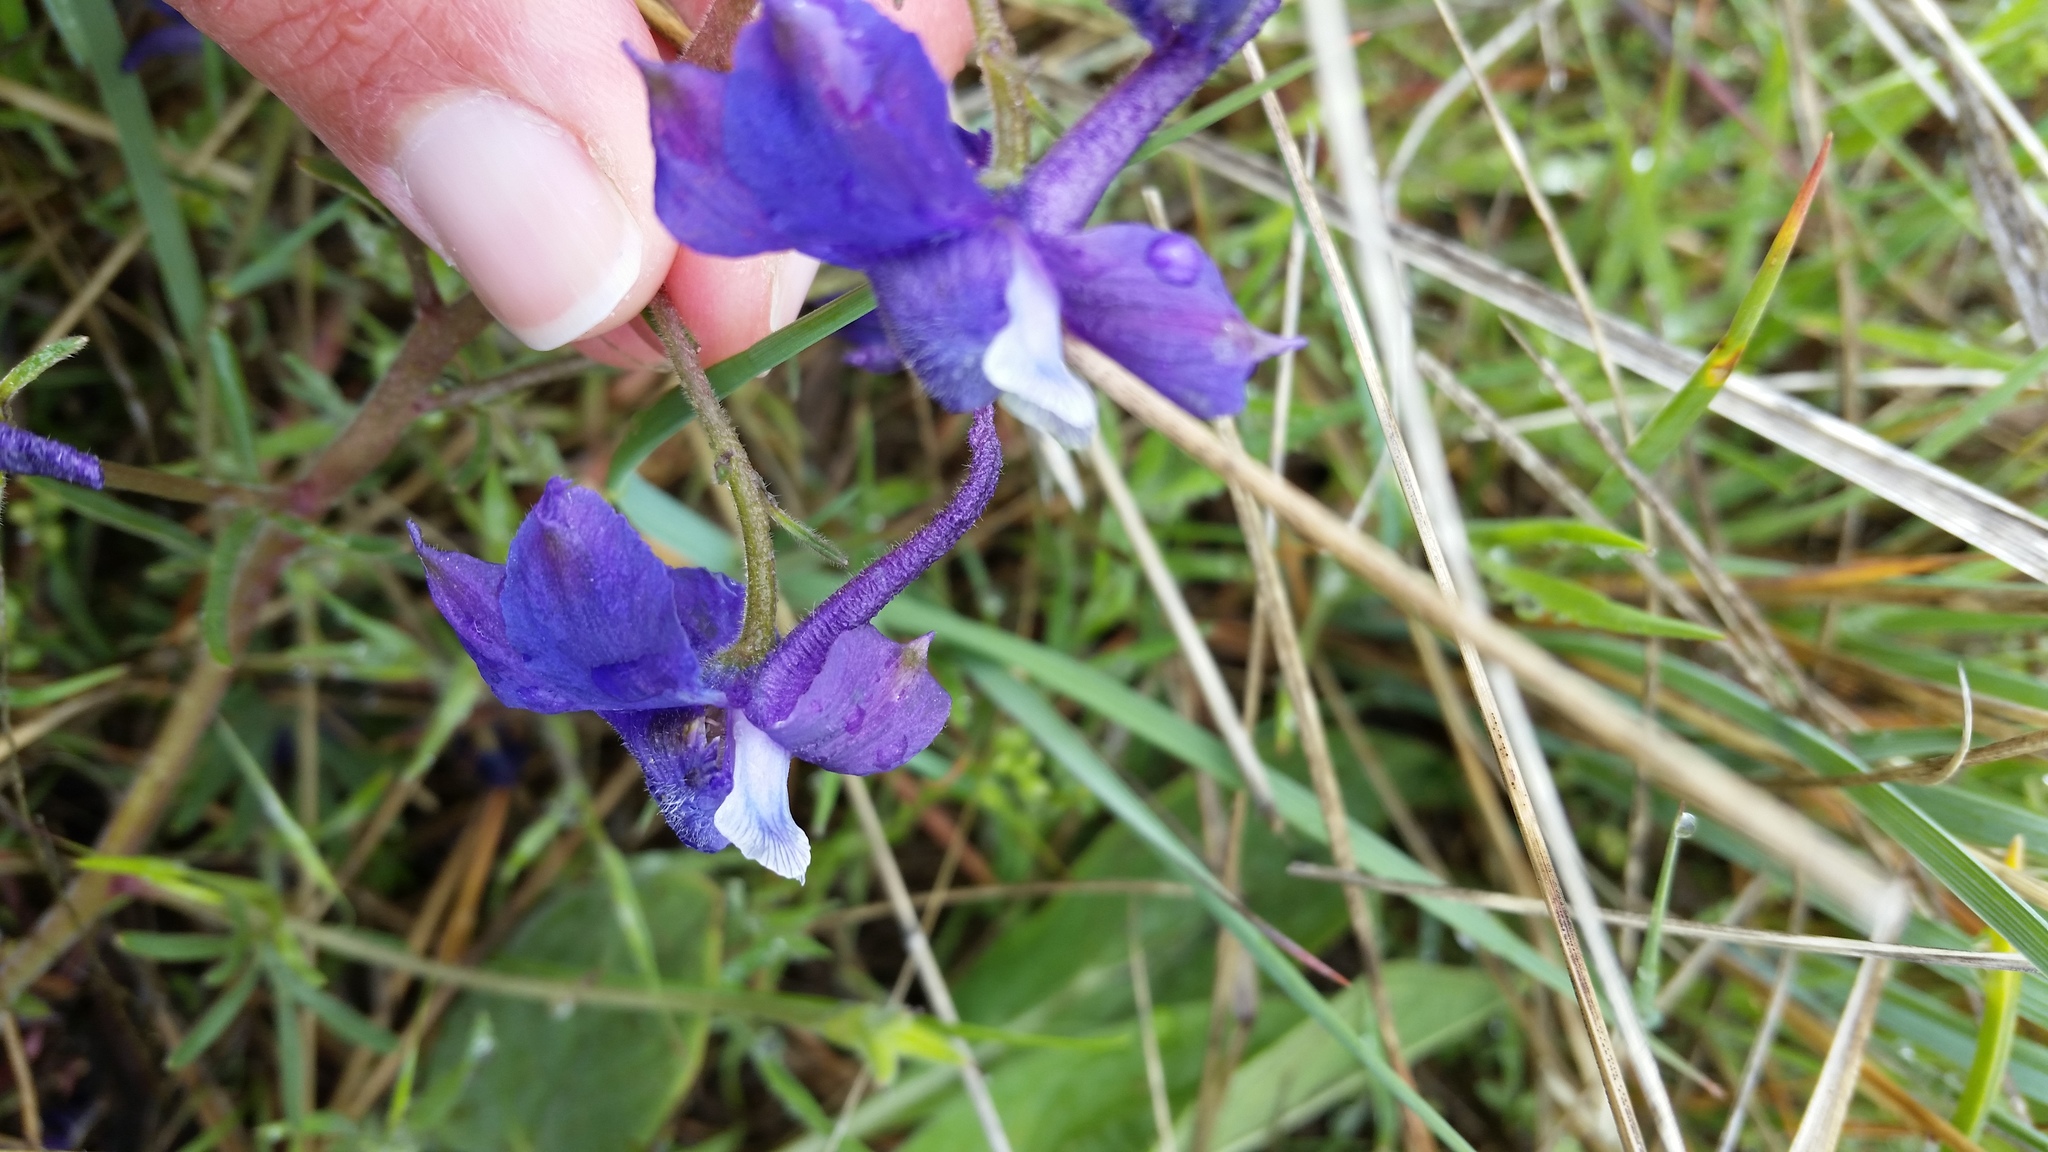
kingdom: Plantae
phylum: Tracheophyta
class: Magnoliopsida
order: Ranunculales
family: Ranunculaceae
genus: Delphinium
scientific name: Delphinium bicolor
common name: Low larkspur
